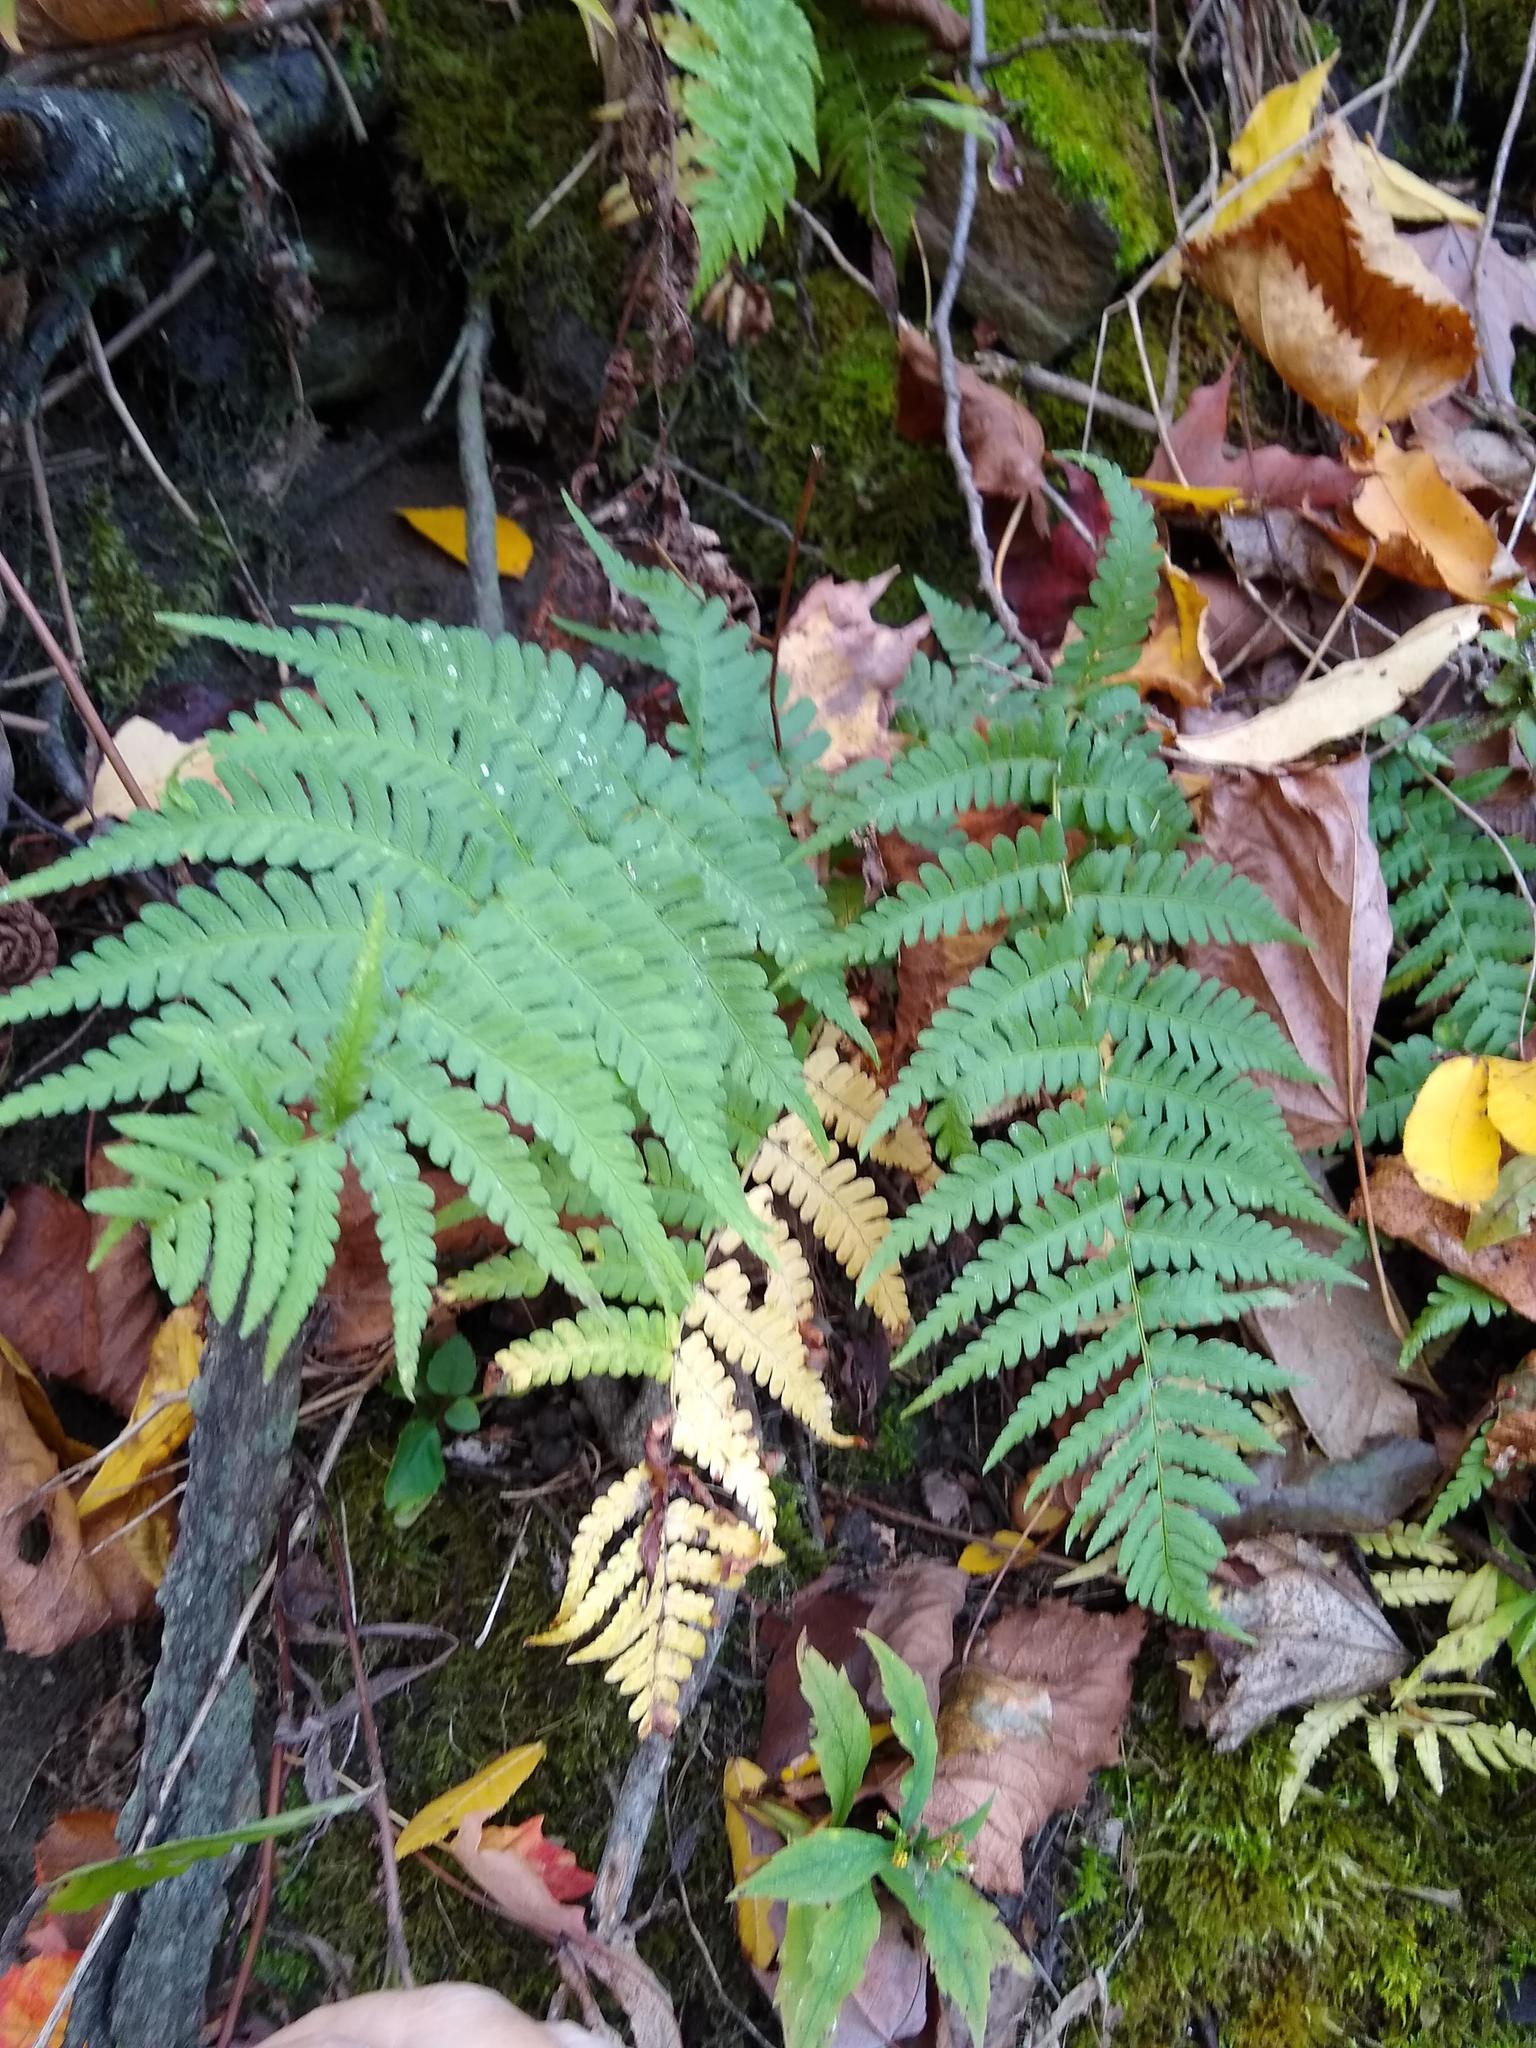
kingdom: Plantae
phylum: Tracheophyta
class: Polypodiopsida
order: Polypodiales
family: Dryopteridaceae
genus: Dryopteris
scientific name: Dryopteris marginalis
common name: Marginal wood fern
